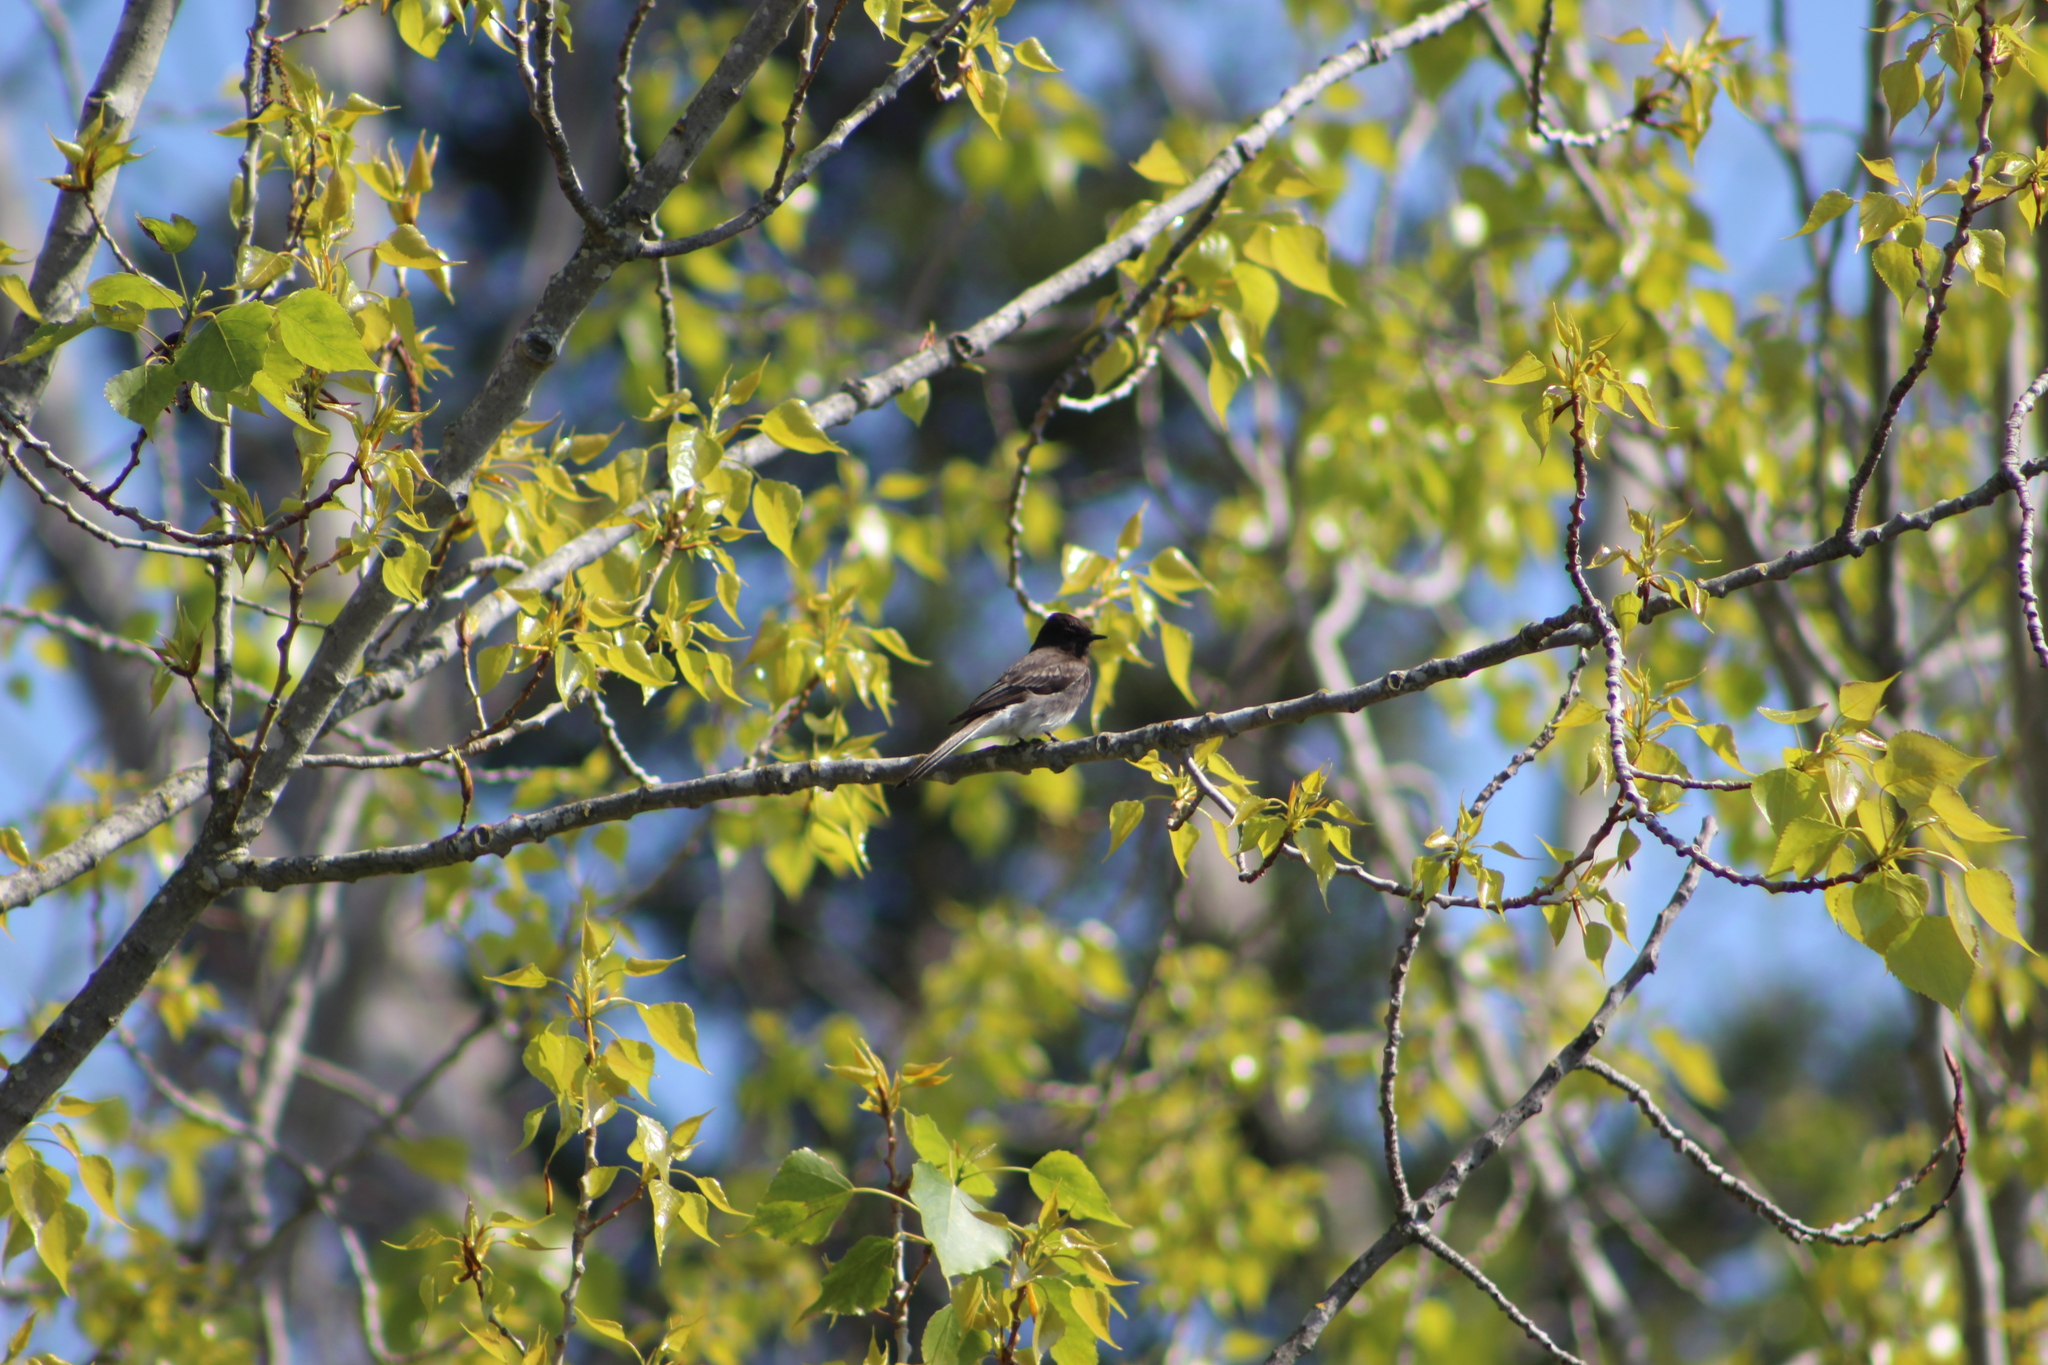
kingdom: Animalia
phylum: Chordata
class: Aves
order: Passeriformes
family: Tyrannidae
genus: Sayornis
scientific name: Sayornis nigricans
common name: Black phoebe
